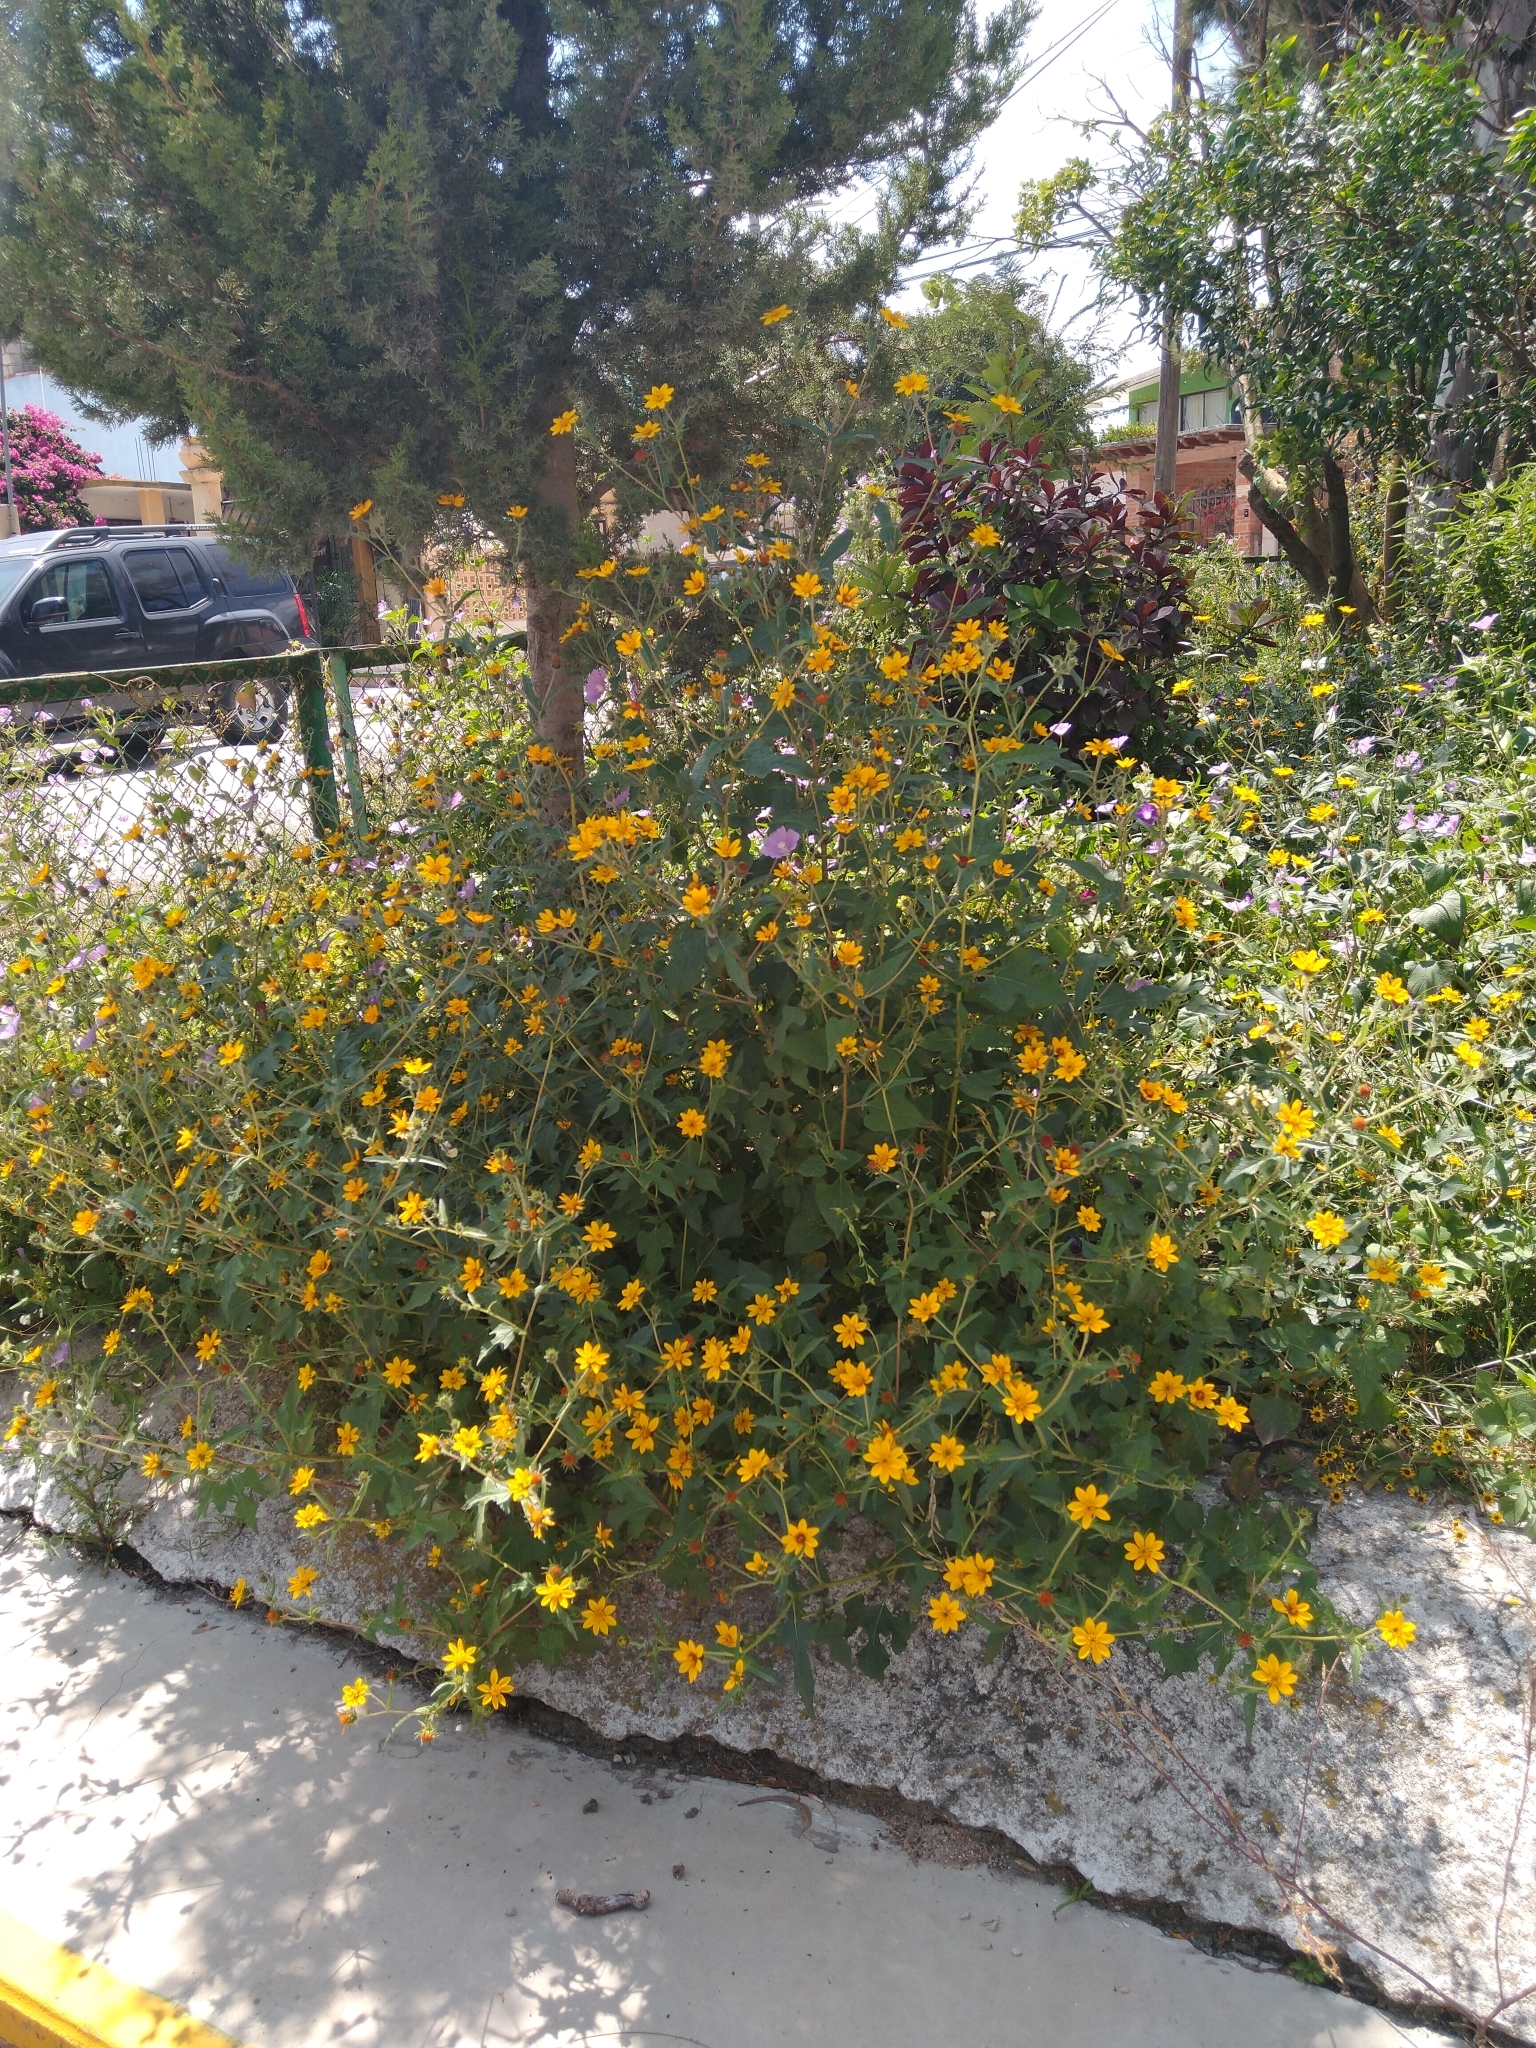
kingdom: Plantae
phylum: Tracheophyta
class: Magnoliopsida
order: Asterales
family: Asteraceae
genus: Simsia
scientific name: Simsia amplexicaulis
